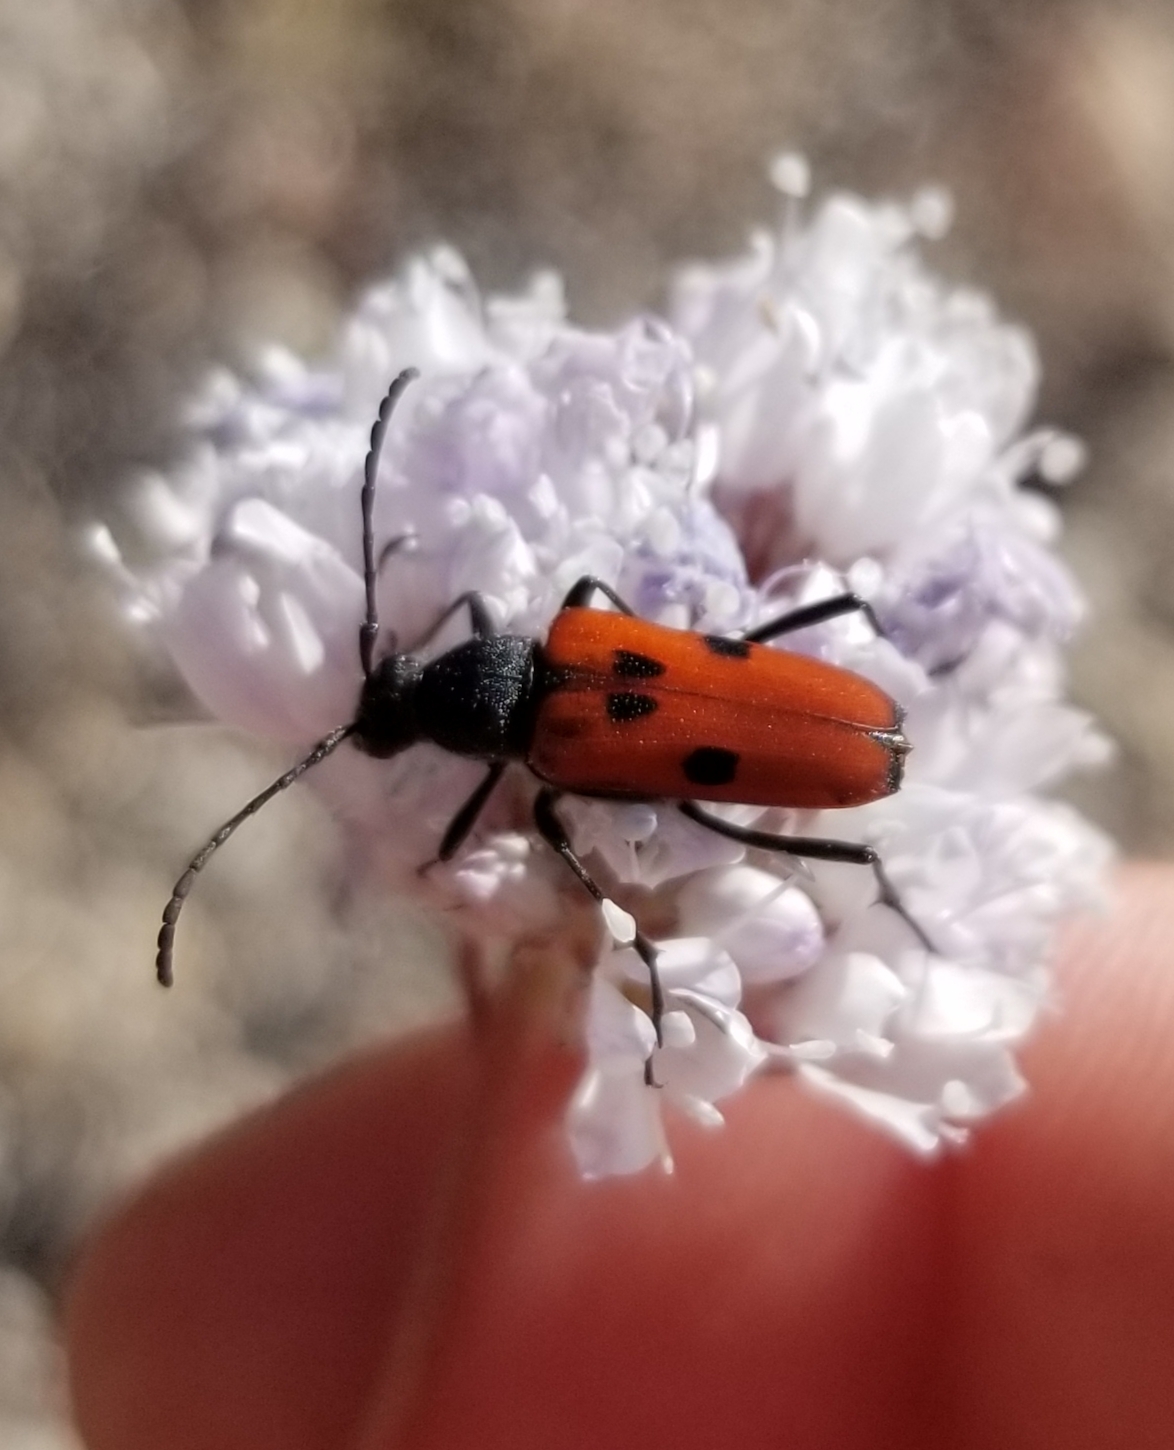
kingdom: Animalia
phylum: Arthropoda
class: Insecta
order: Coleoptera
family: Cerambycidae
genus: Anastrangalia
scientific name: Anastrangalia laetifica
